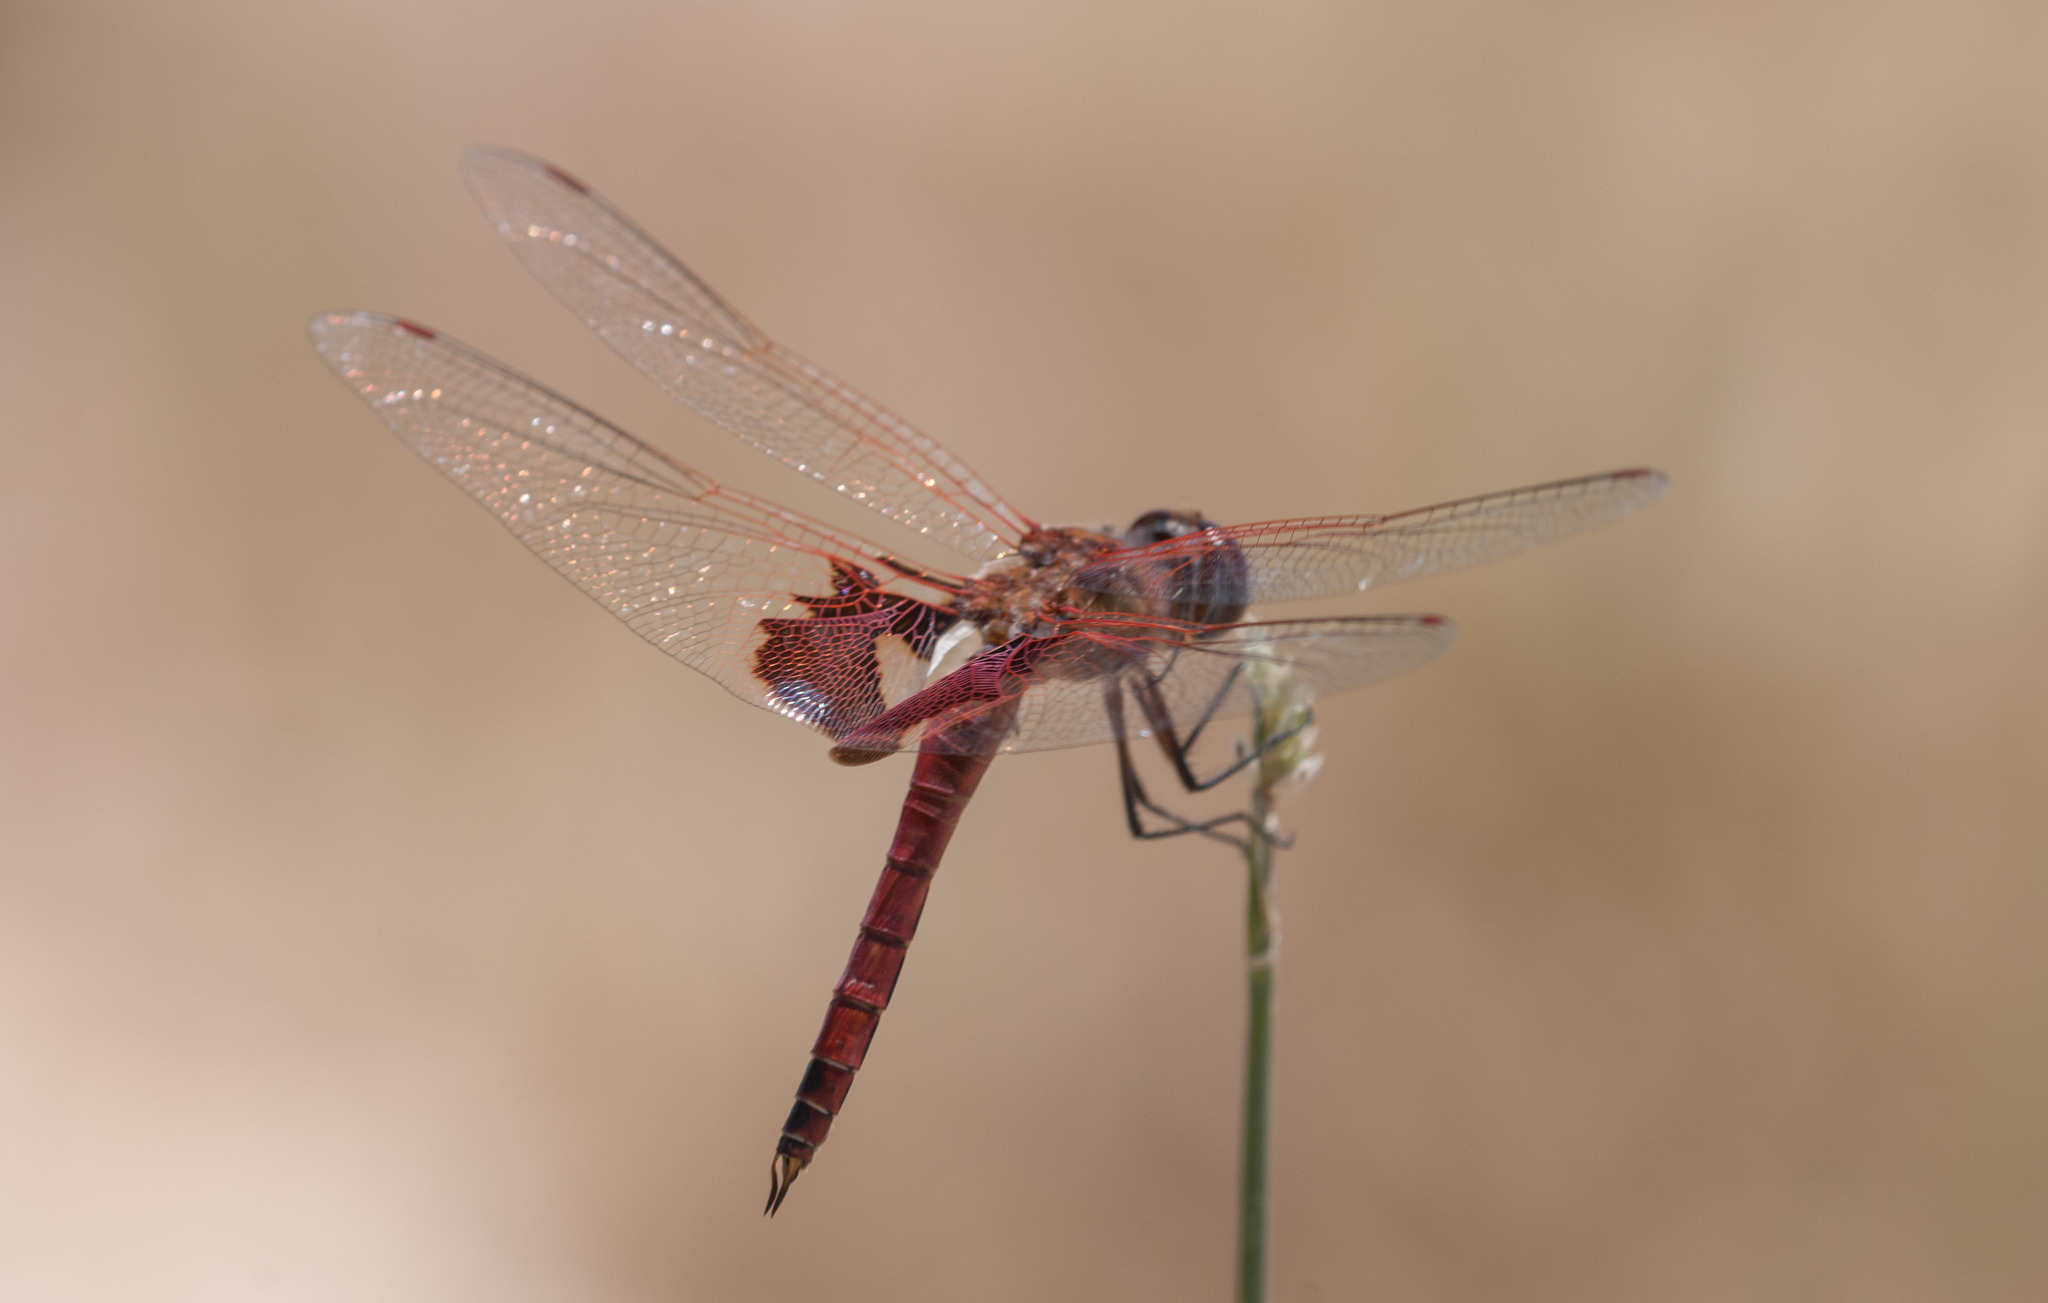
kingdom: Animalia
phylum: Arthropoda
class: Insecta
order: Odonata
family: Libellulidae
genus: Tramea
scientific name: Tramea onusta
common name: Red saddlebags
